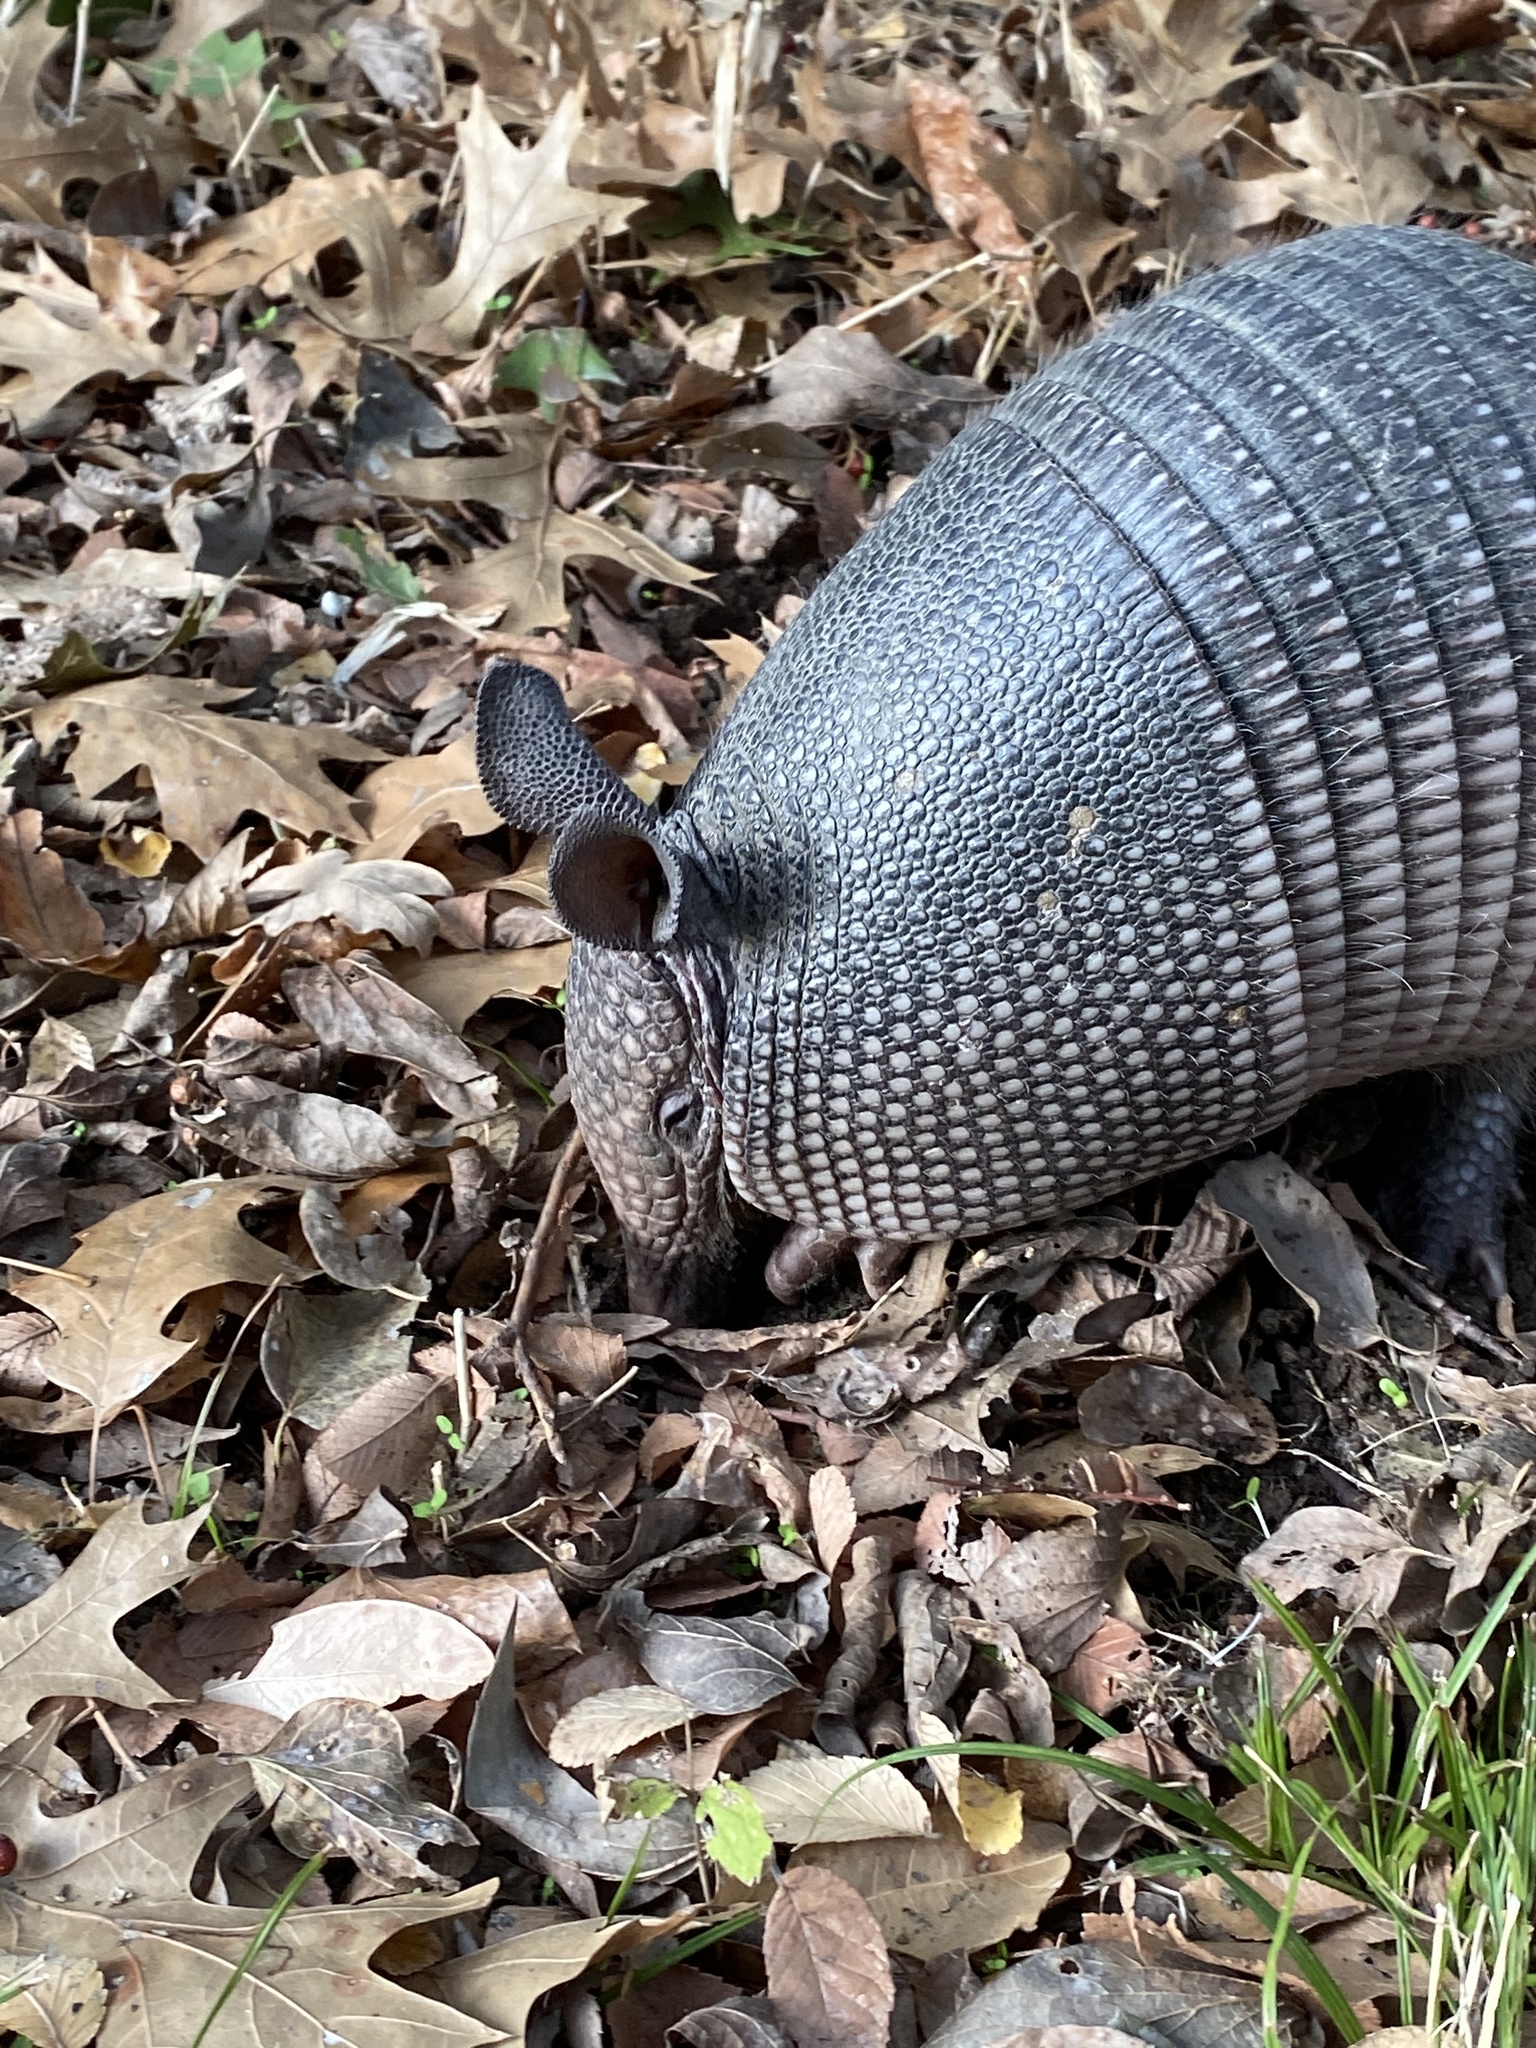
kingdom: Animalia
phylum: Chordata
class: Mammalia
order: Cingulata
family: Dasypodidae
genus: Dasypus
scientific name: Dasypus novemcinctus
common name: Nine-banded armadillo
